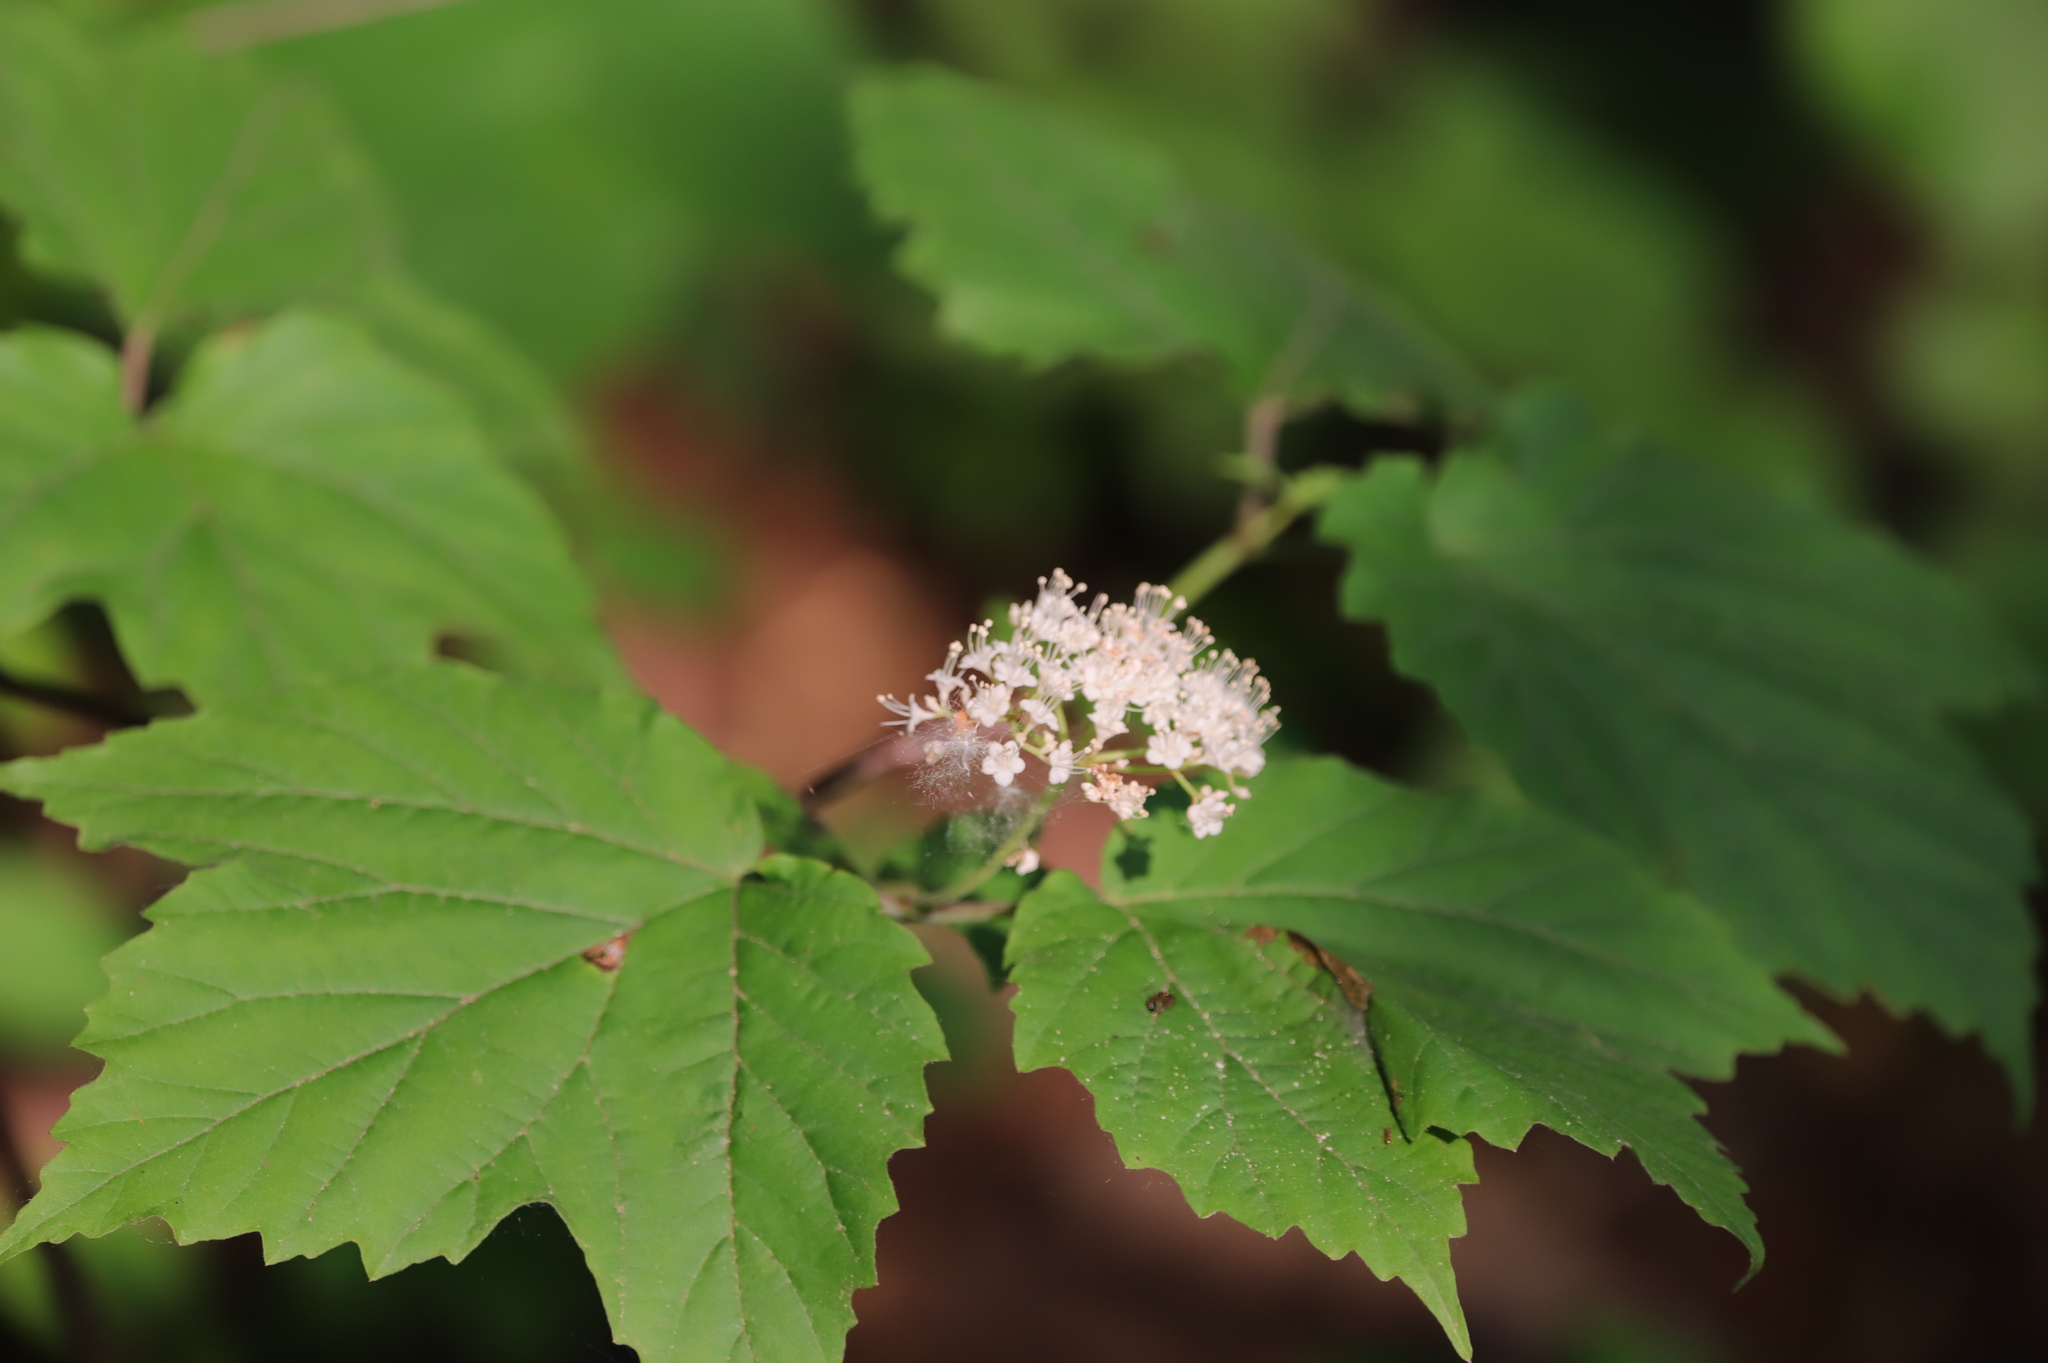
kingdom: Plantae
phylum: Tracheophyta
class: Magnoliopsida
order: Dipsacales
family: Viburnaceae
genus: Viburnum
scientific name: Viburnum acerifolium
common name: Dockmackie
